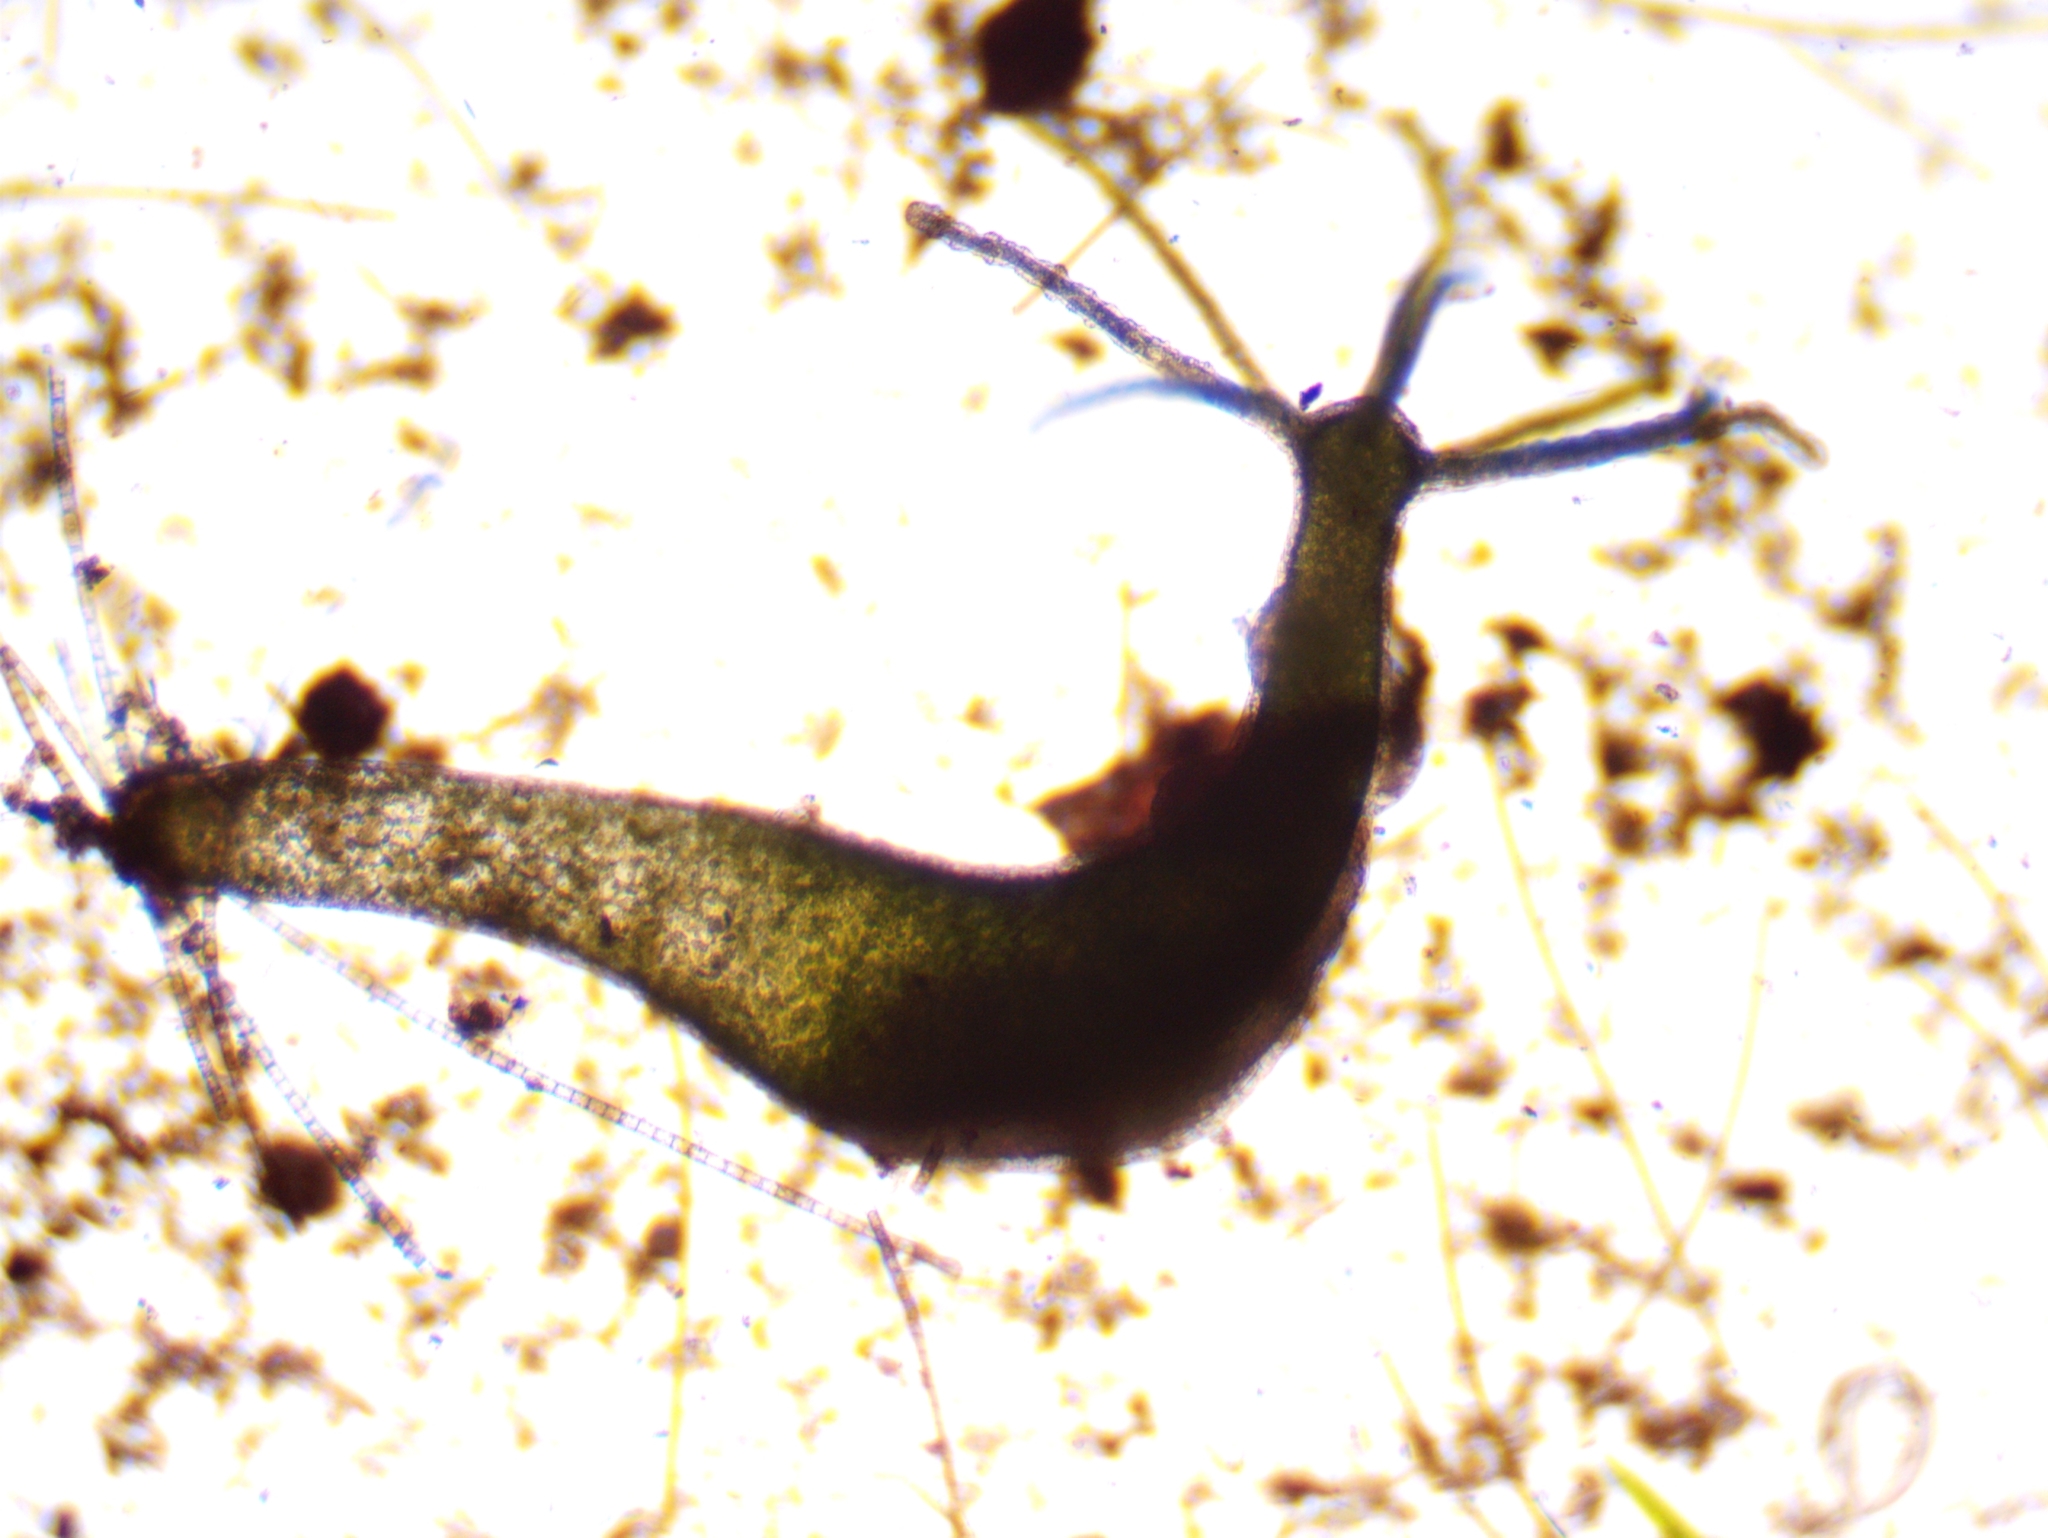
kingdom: Animalia
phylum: Cnidaria
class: Hydrozoa
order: Anthoathecata
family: Hydridae
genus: Hydra
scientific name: Hydra viridissima
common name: Green hydra
